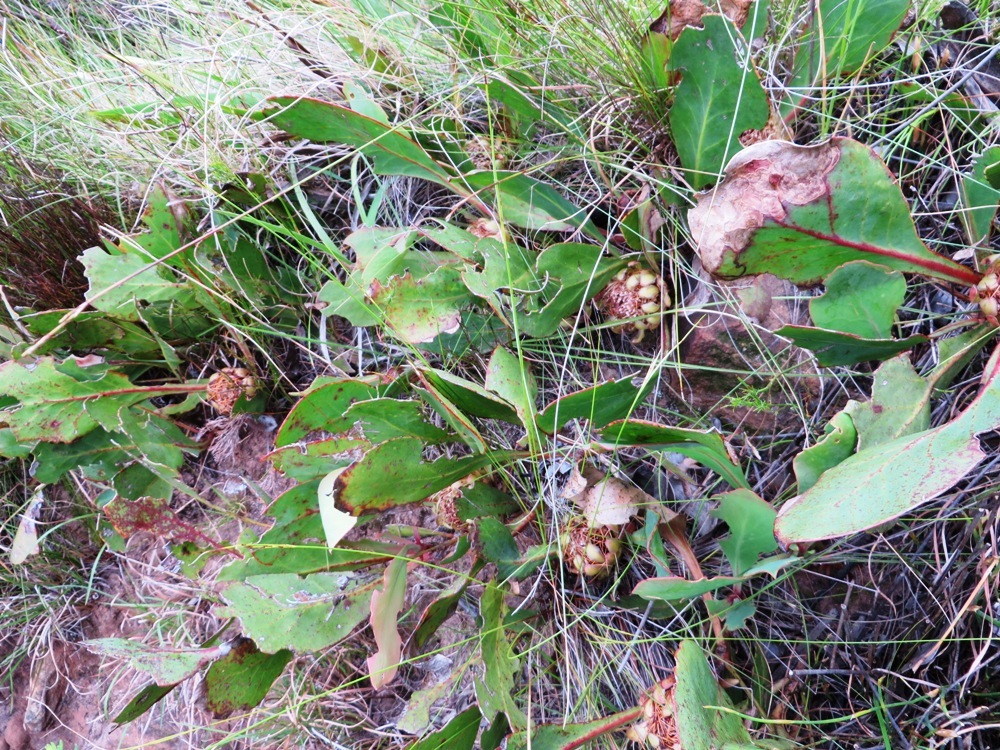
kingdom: Plantae
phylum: Tracheophyta
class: Magnoliopsida
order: Proteales
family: Proteaceae
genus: Protea
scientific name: Protea acaulos
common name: Common ground sugarbush
